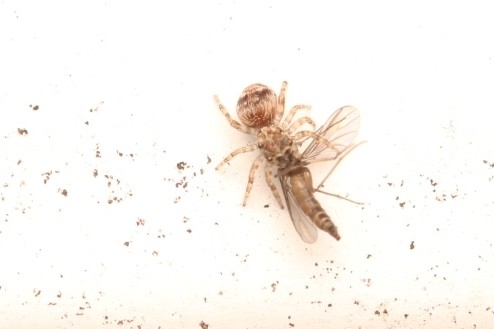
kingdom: Animalia
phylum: Arthropoda
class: Arachnida
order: Araneae
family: Salticidae
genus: Attulus
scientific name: Attulus fasciger
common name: Asiatic wall jumping spider
